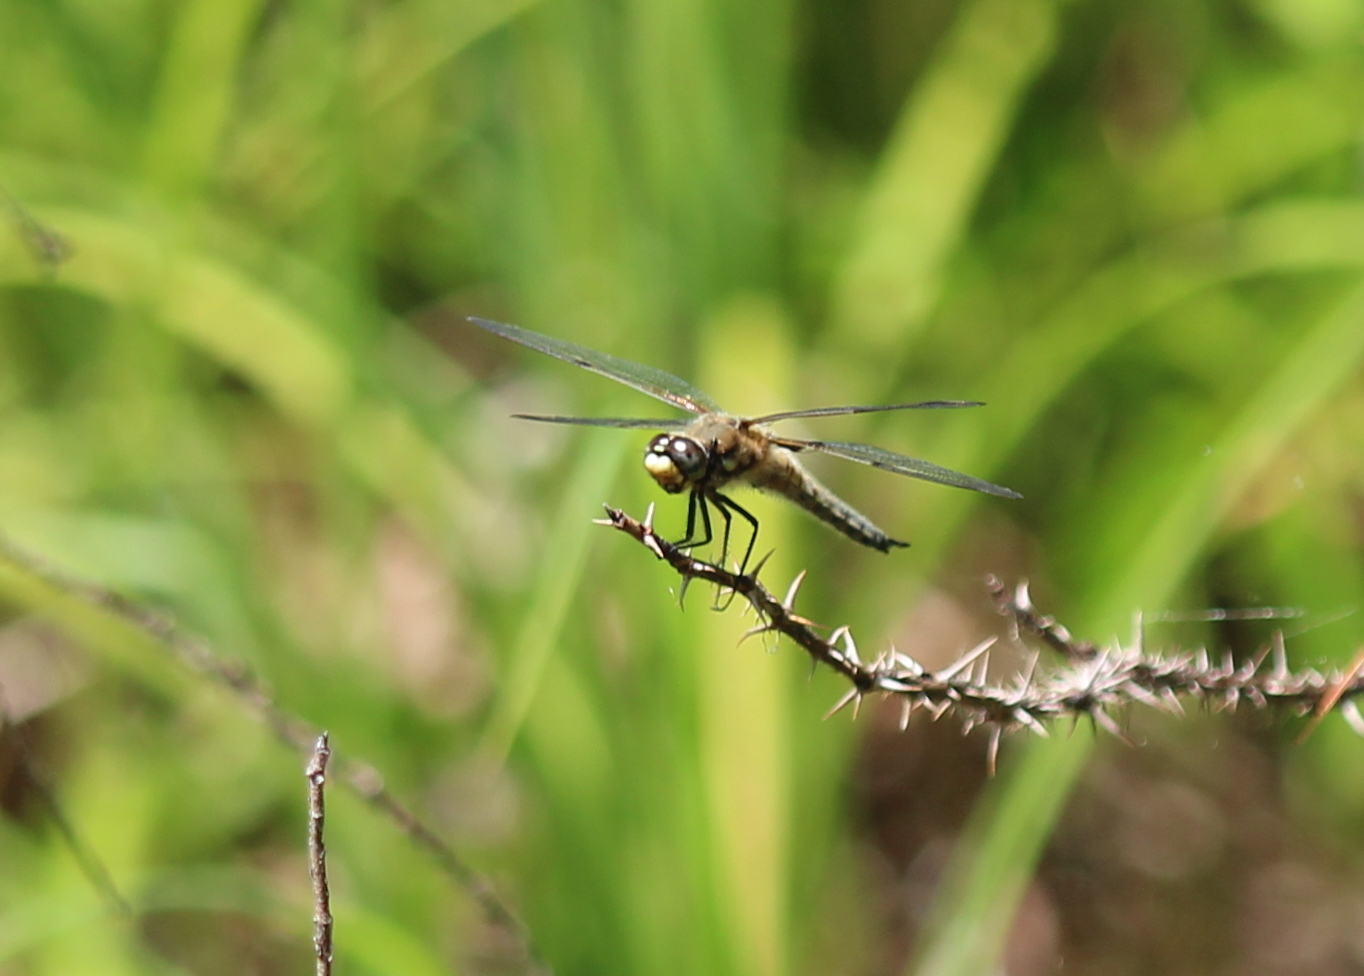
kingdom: Animalia
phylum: Arthropoda
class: Insecta
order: Odonata
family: Libellulidae
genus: Libellula
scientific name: Libellula quadrimaculata
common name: Four-spotted chaser
